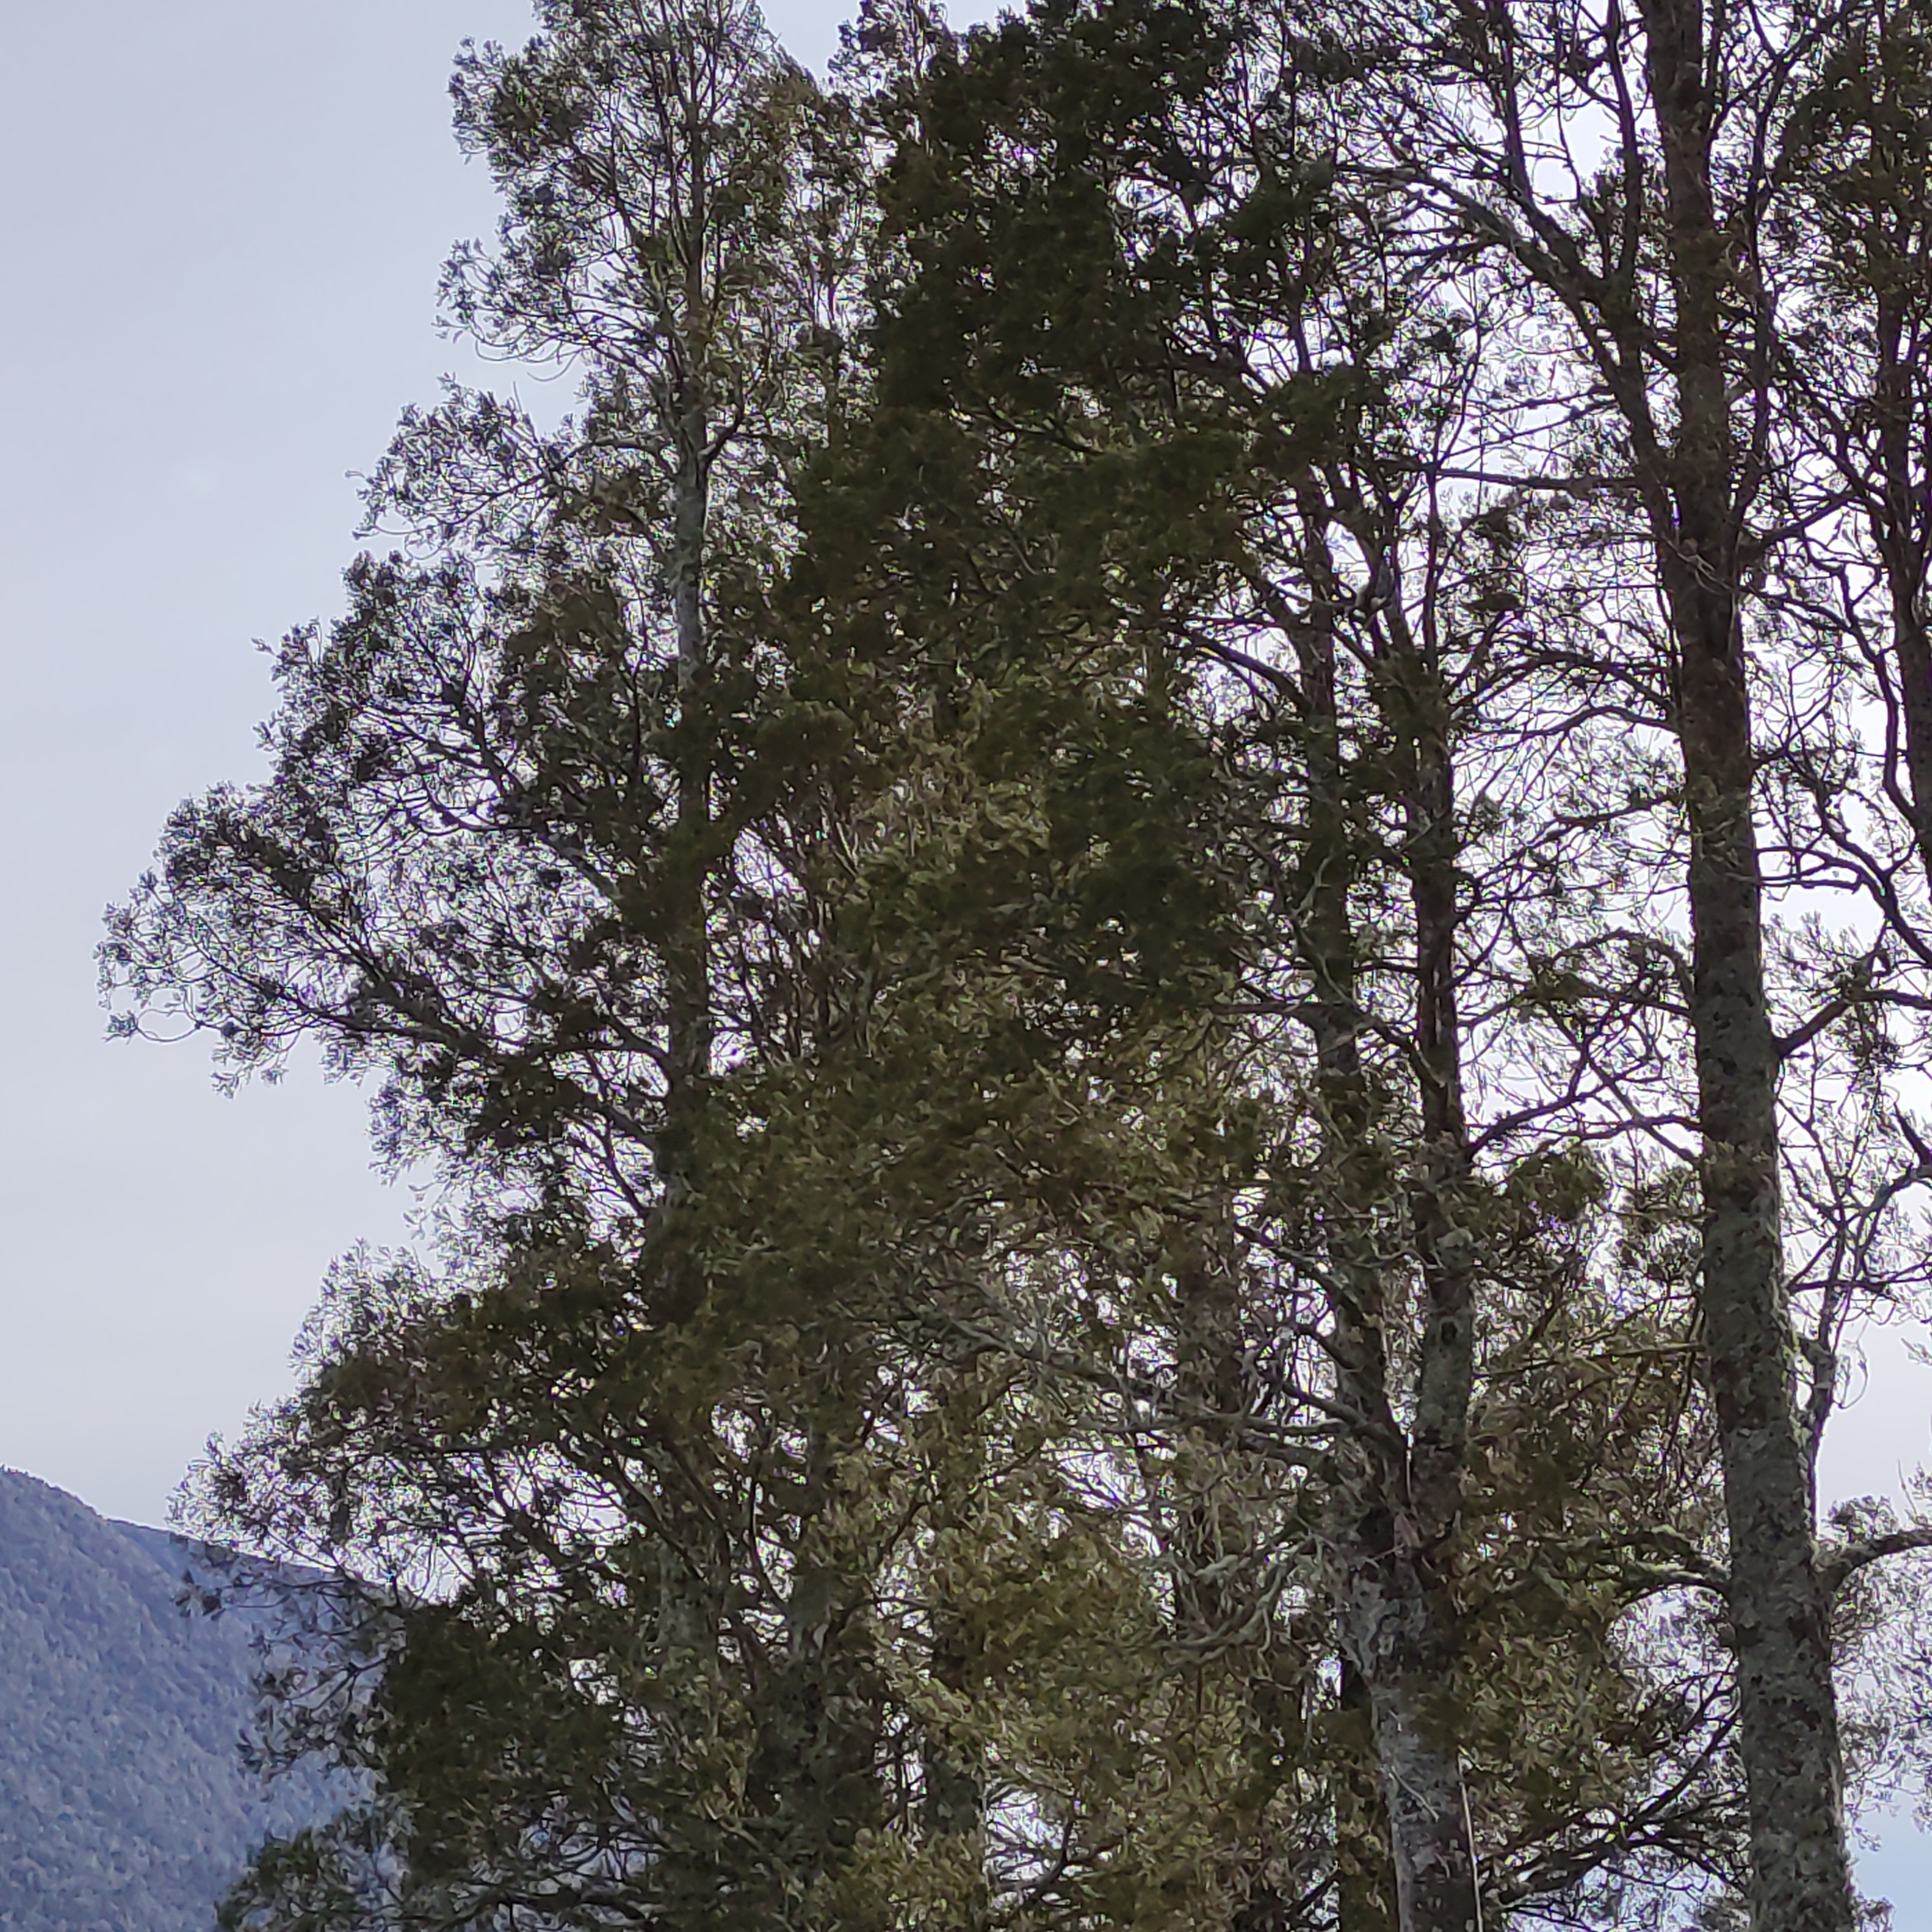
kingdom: Plantae
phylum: Tracheophyta
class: Pinopsida
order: Pinales
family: Podocarpaceae
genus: Dacrycarpus
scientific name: Dacrycarpus dacrydioides
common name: White pine
